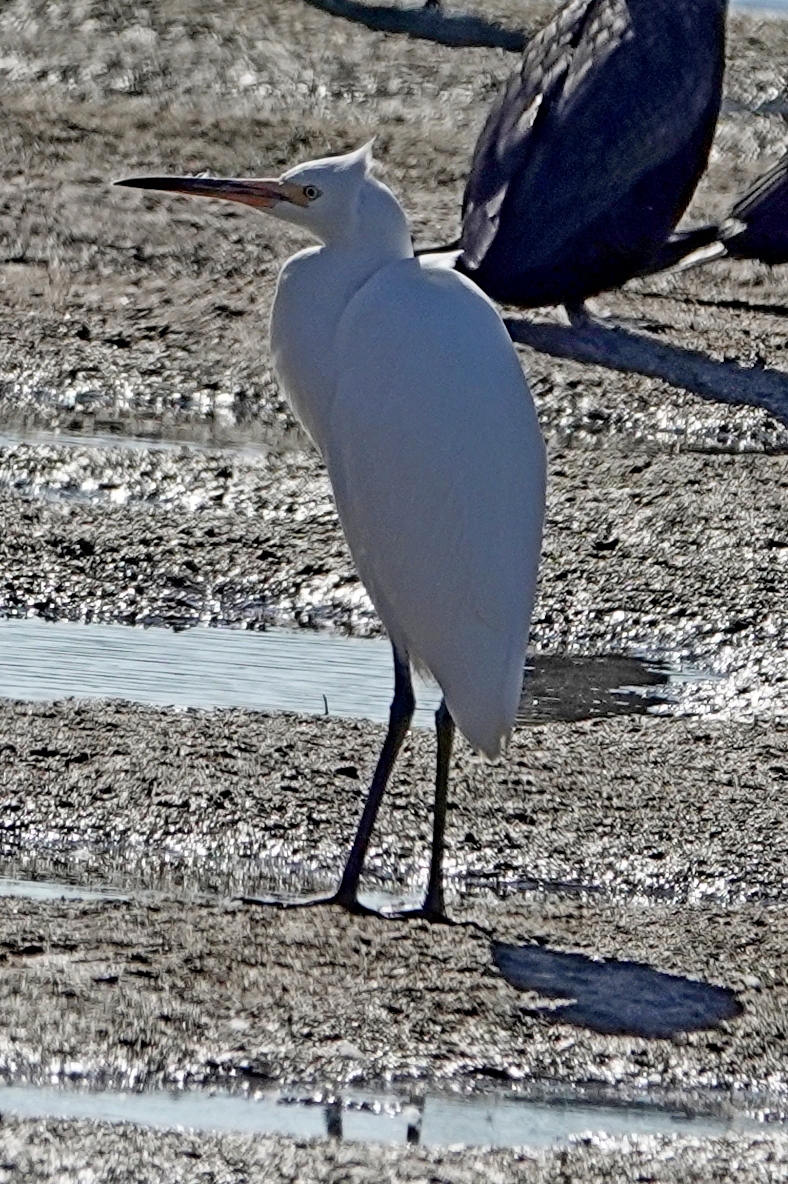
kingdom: Animalia
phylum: Chordata
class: Aves
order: Pelecaniformes
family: Ardeidae
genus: Egretta
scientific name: Egretta garzetta
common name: Little egret
